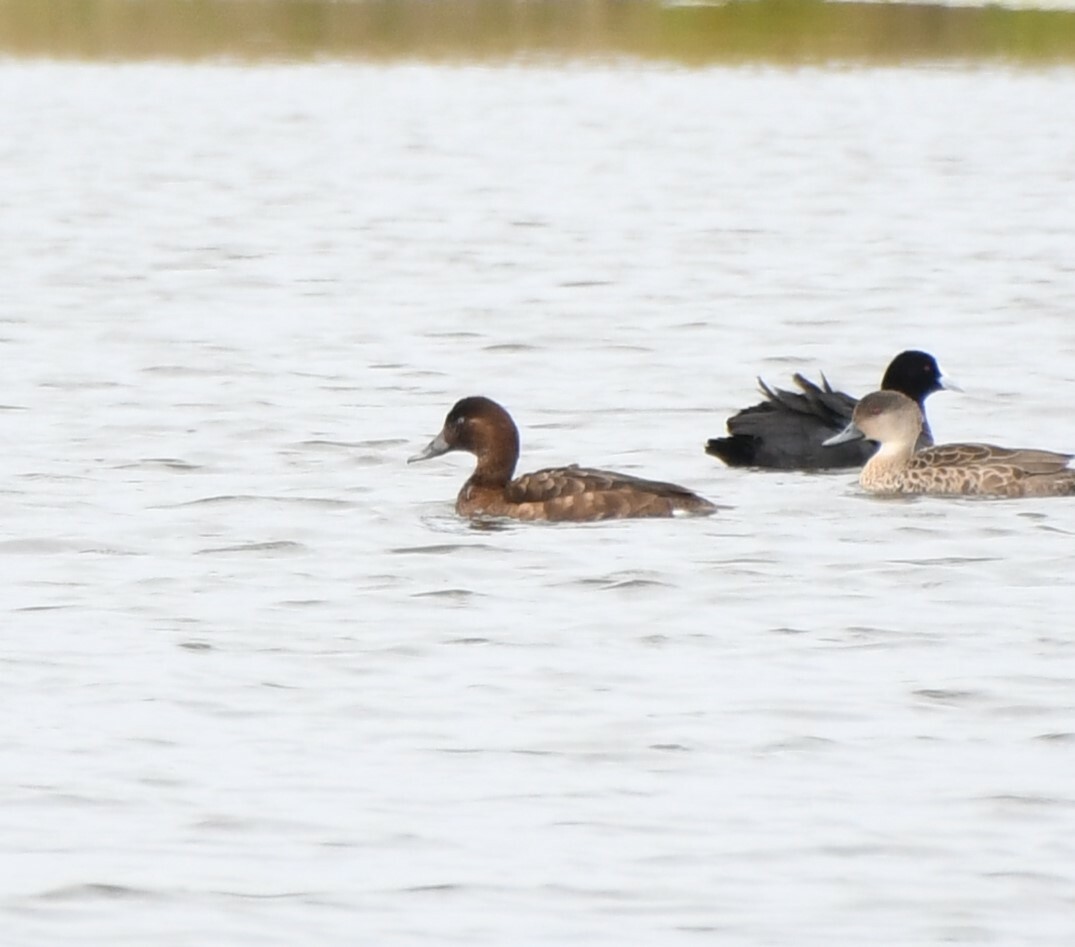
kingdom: Animalia
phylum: Chordata
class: Aves
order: Anseriformes
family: Anatidae
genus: Aythya
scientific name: Aythya australis
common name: Hardhead
